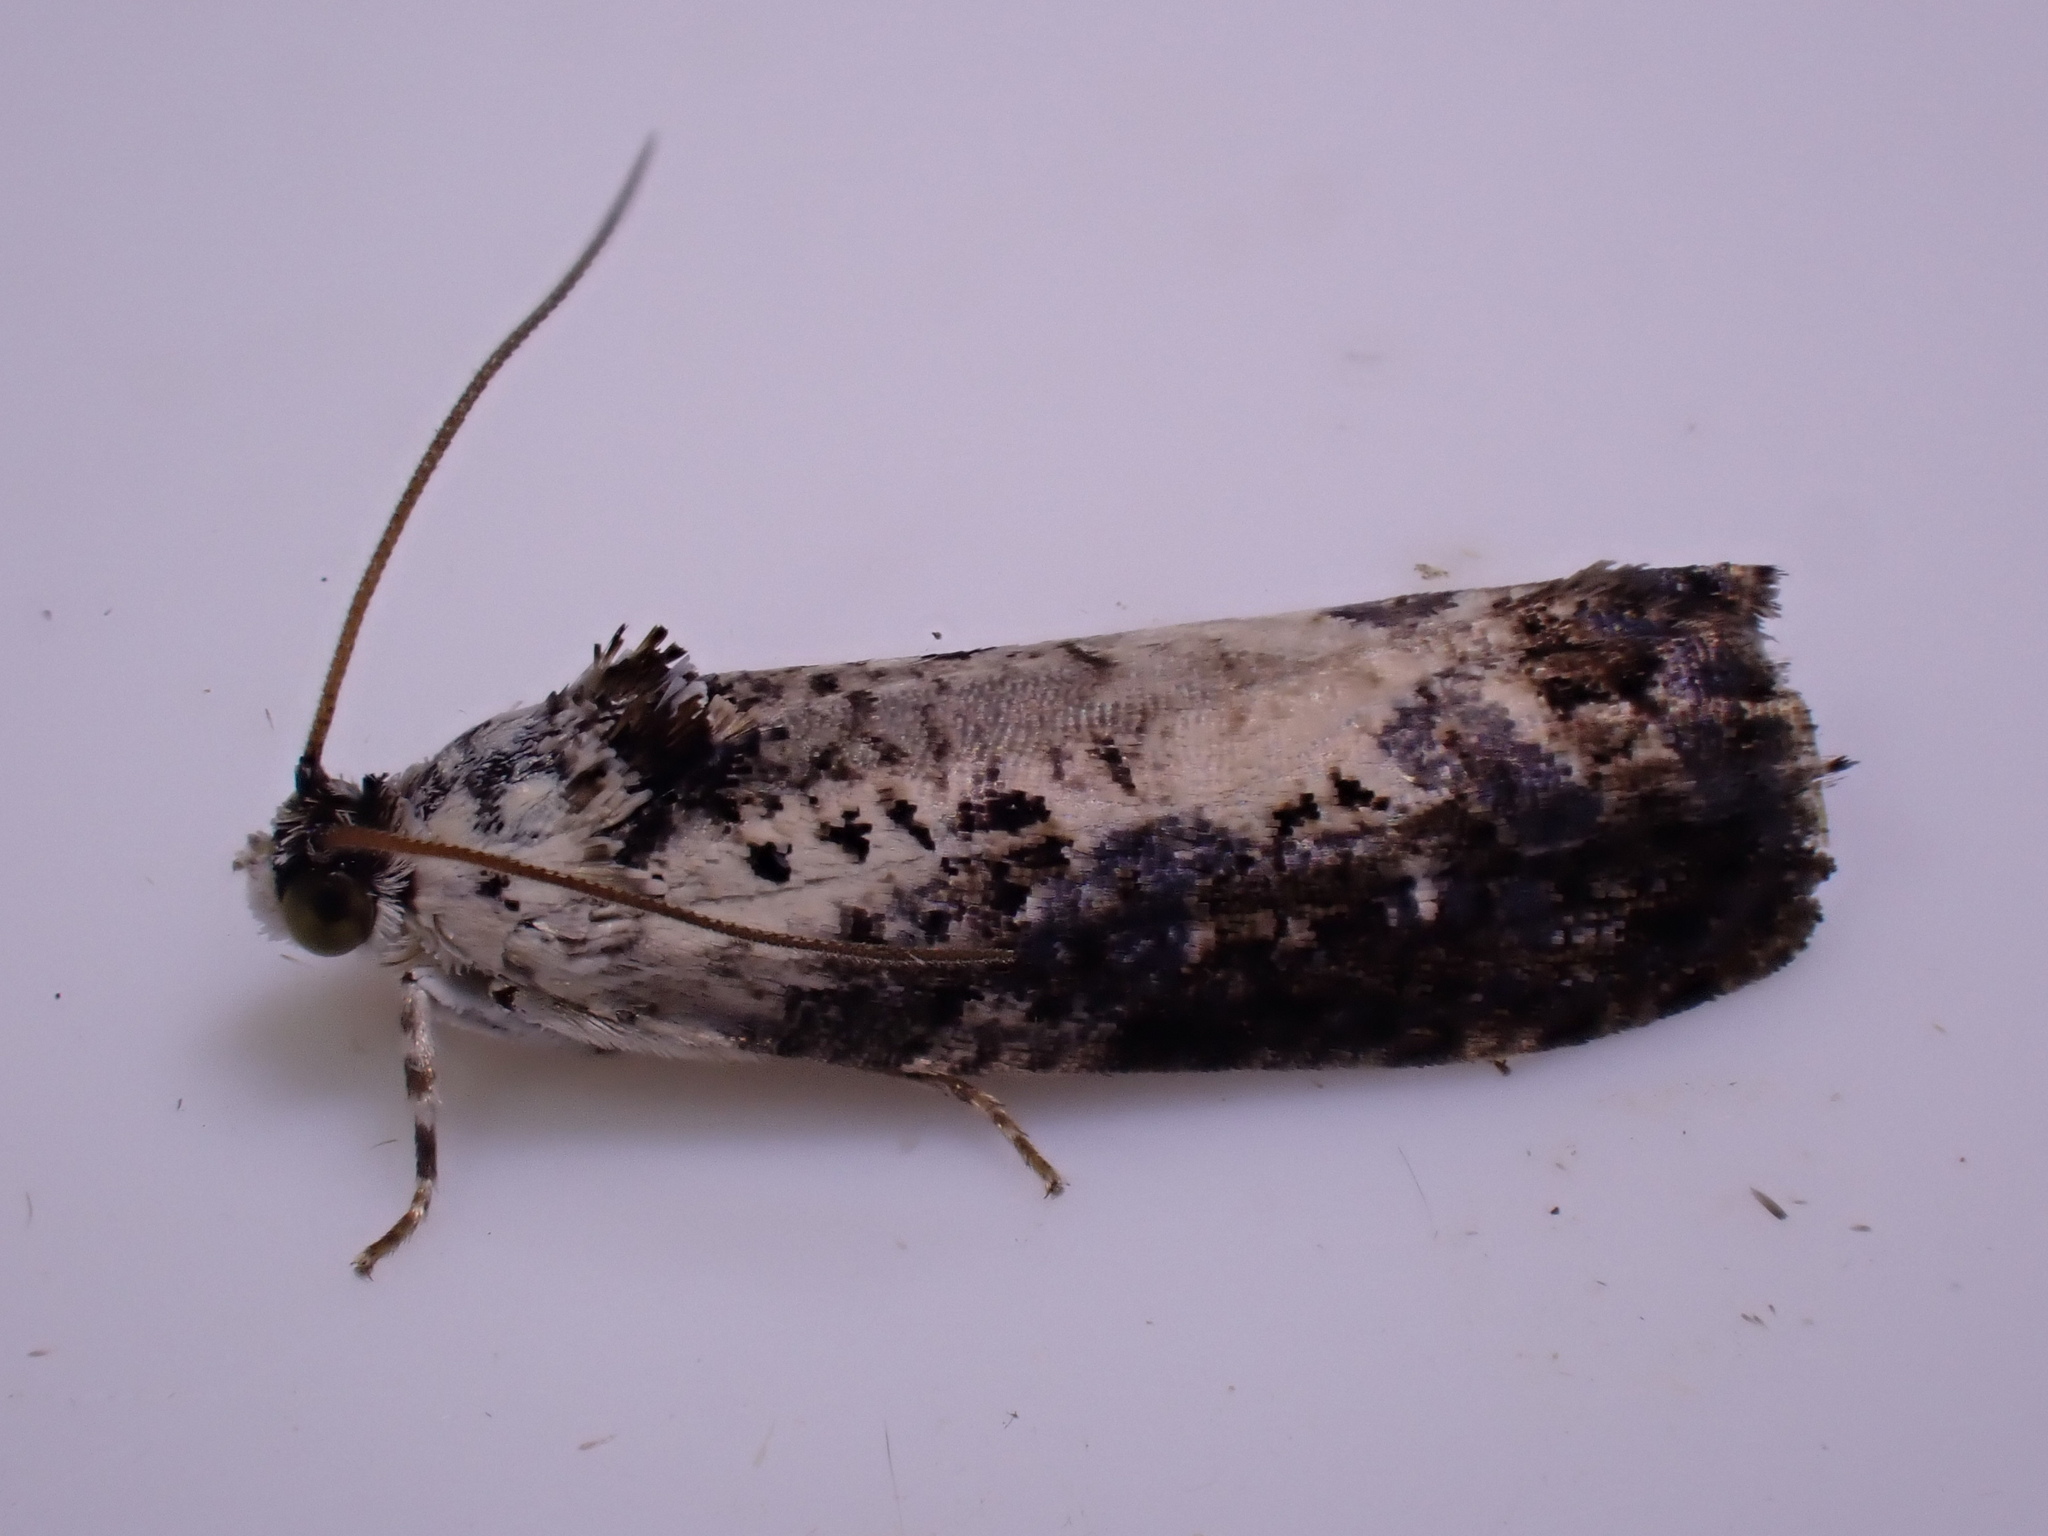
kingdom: Animalia
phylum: Arthropoda
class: Insecta
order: Lepidoptera
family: Tortricidae
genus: Hedya
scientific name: Hedya salicella
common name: Large tortricid moth
